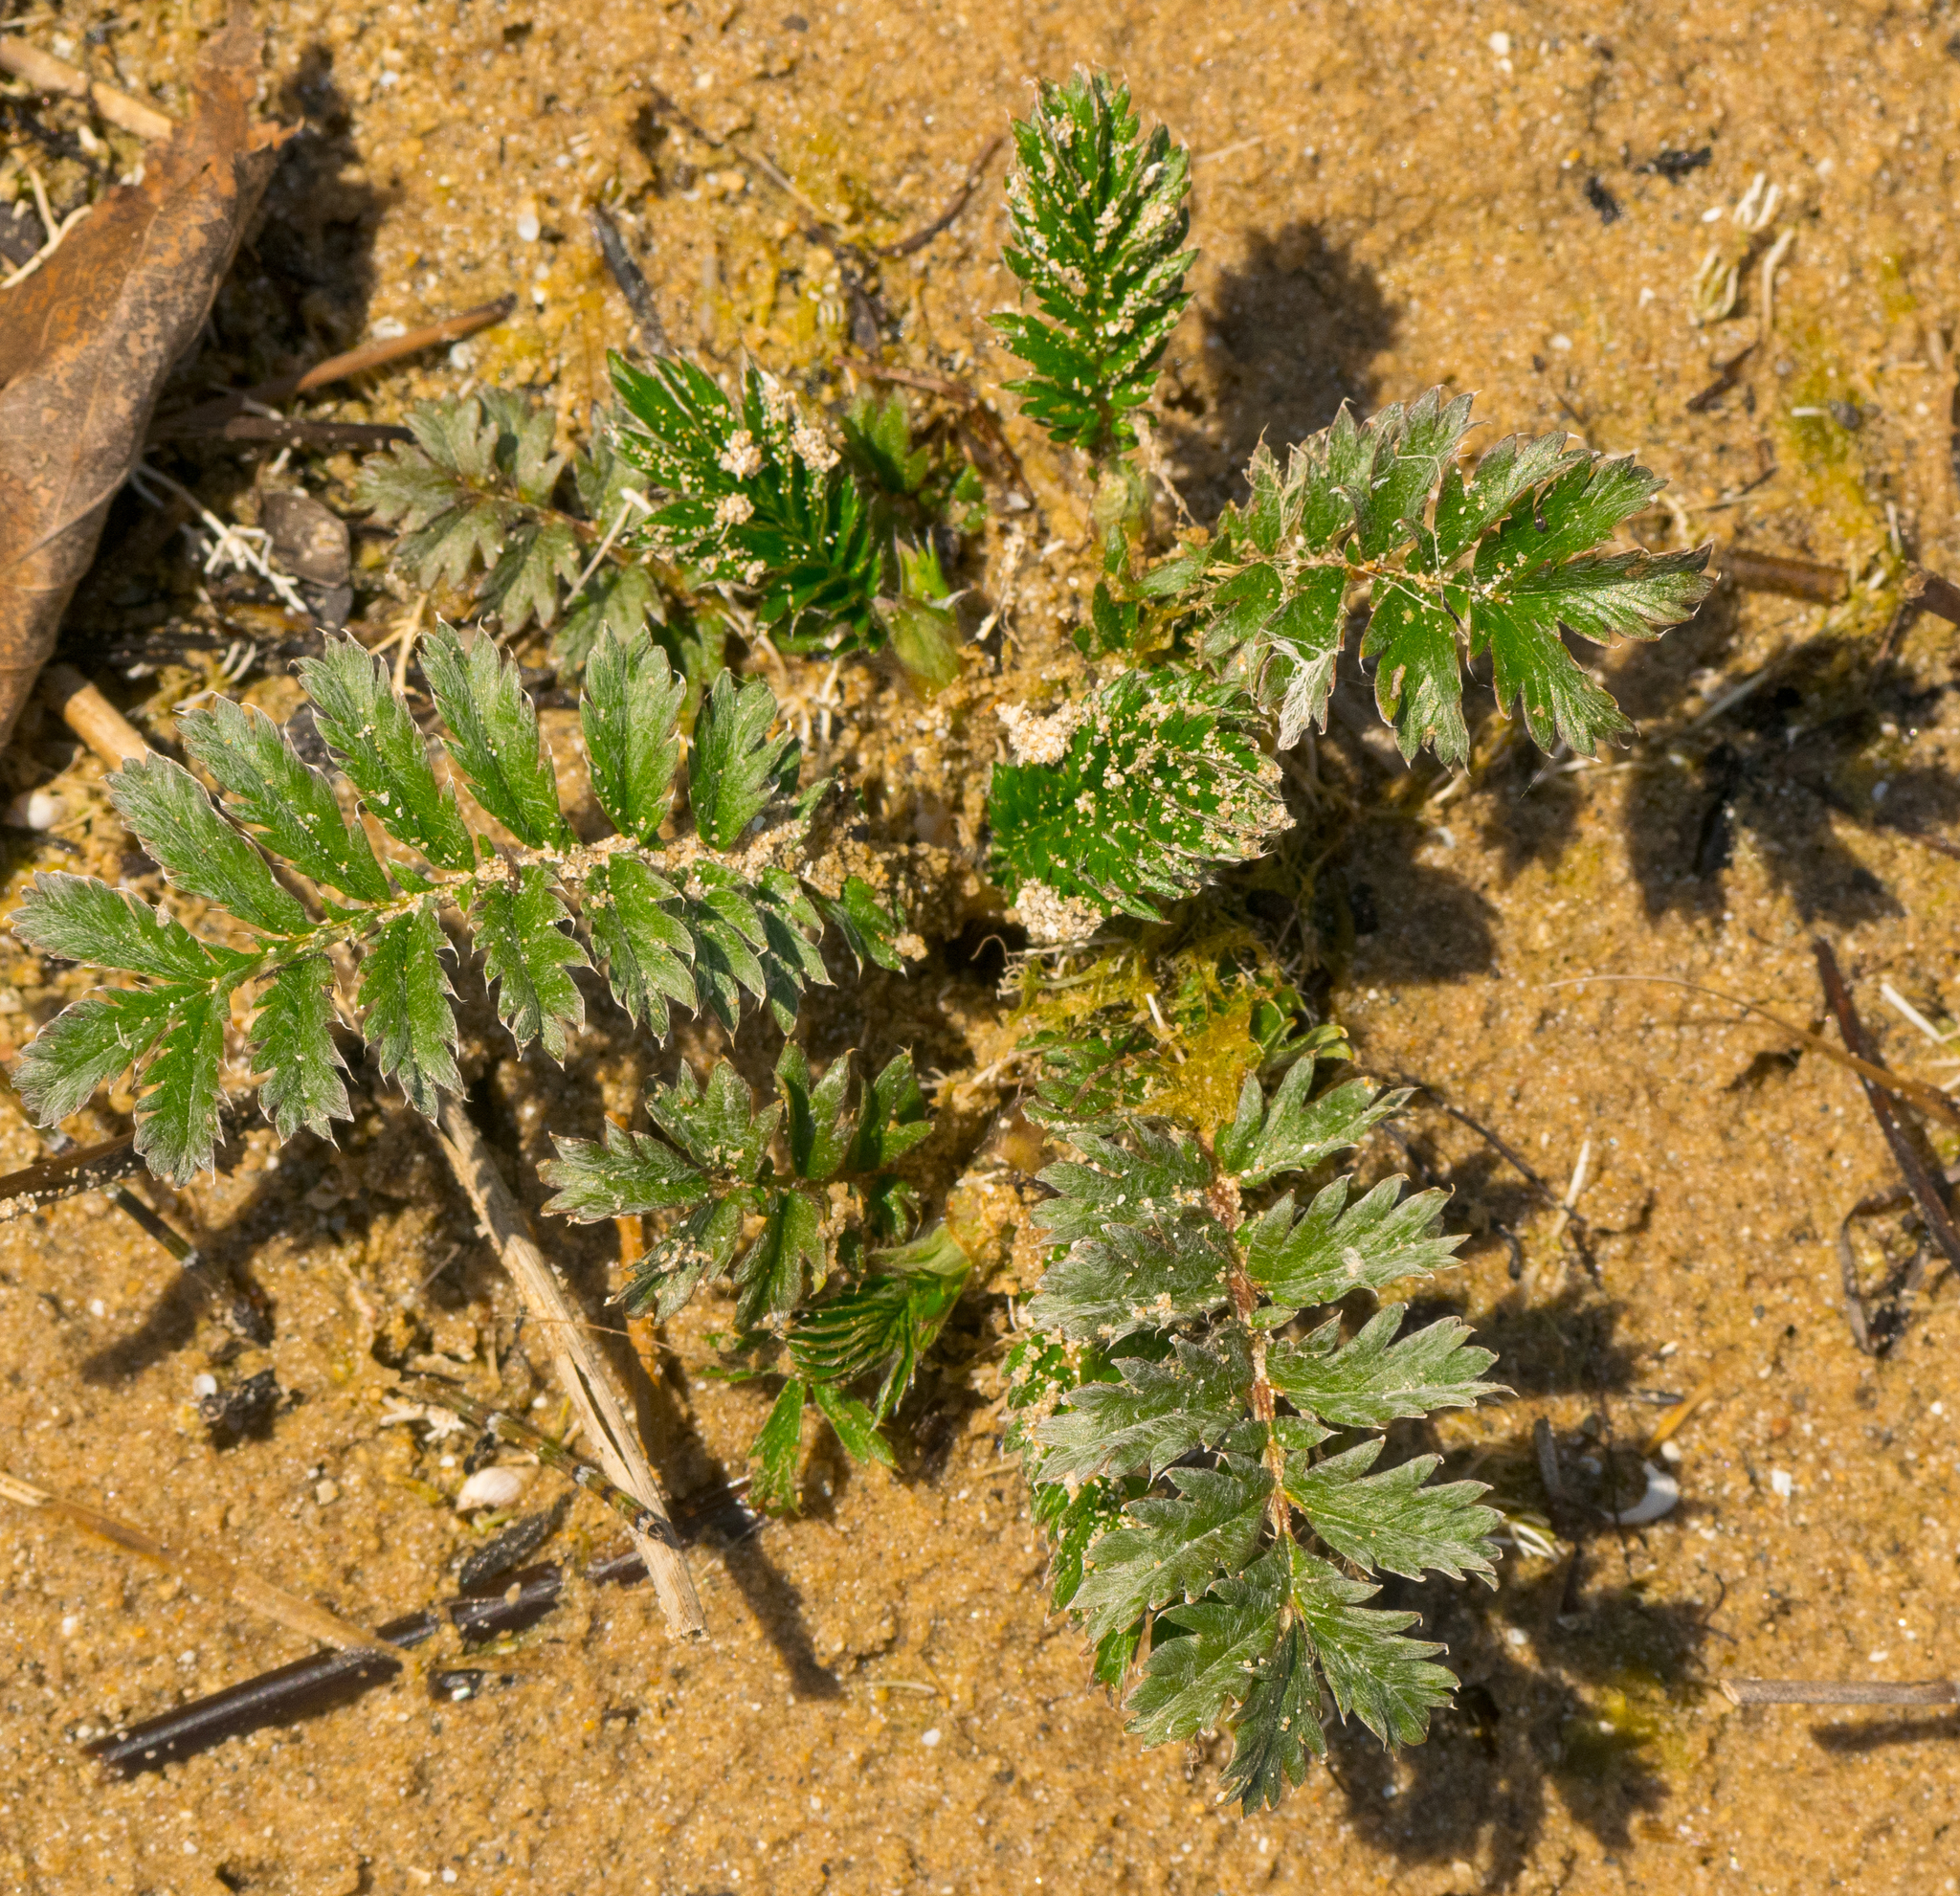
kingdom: Plantae
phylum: Tracheophyta
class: Magnoliopsida
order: Rosales
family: Rosaceae
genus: Argentina
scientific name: Argentina anserina
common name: Common silverweed
